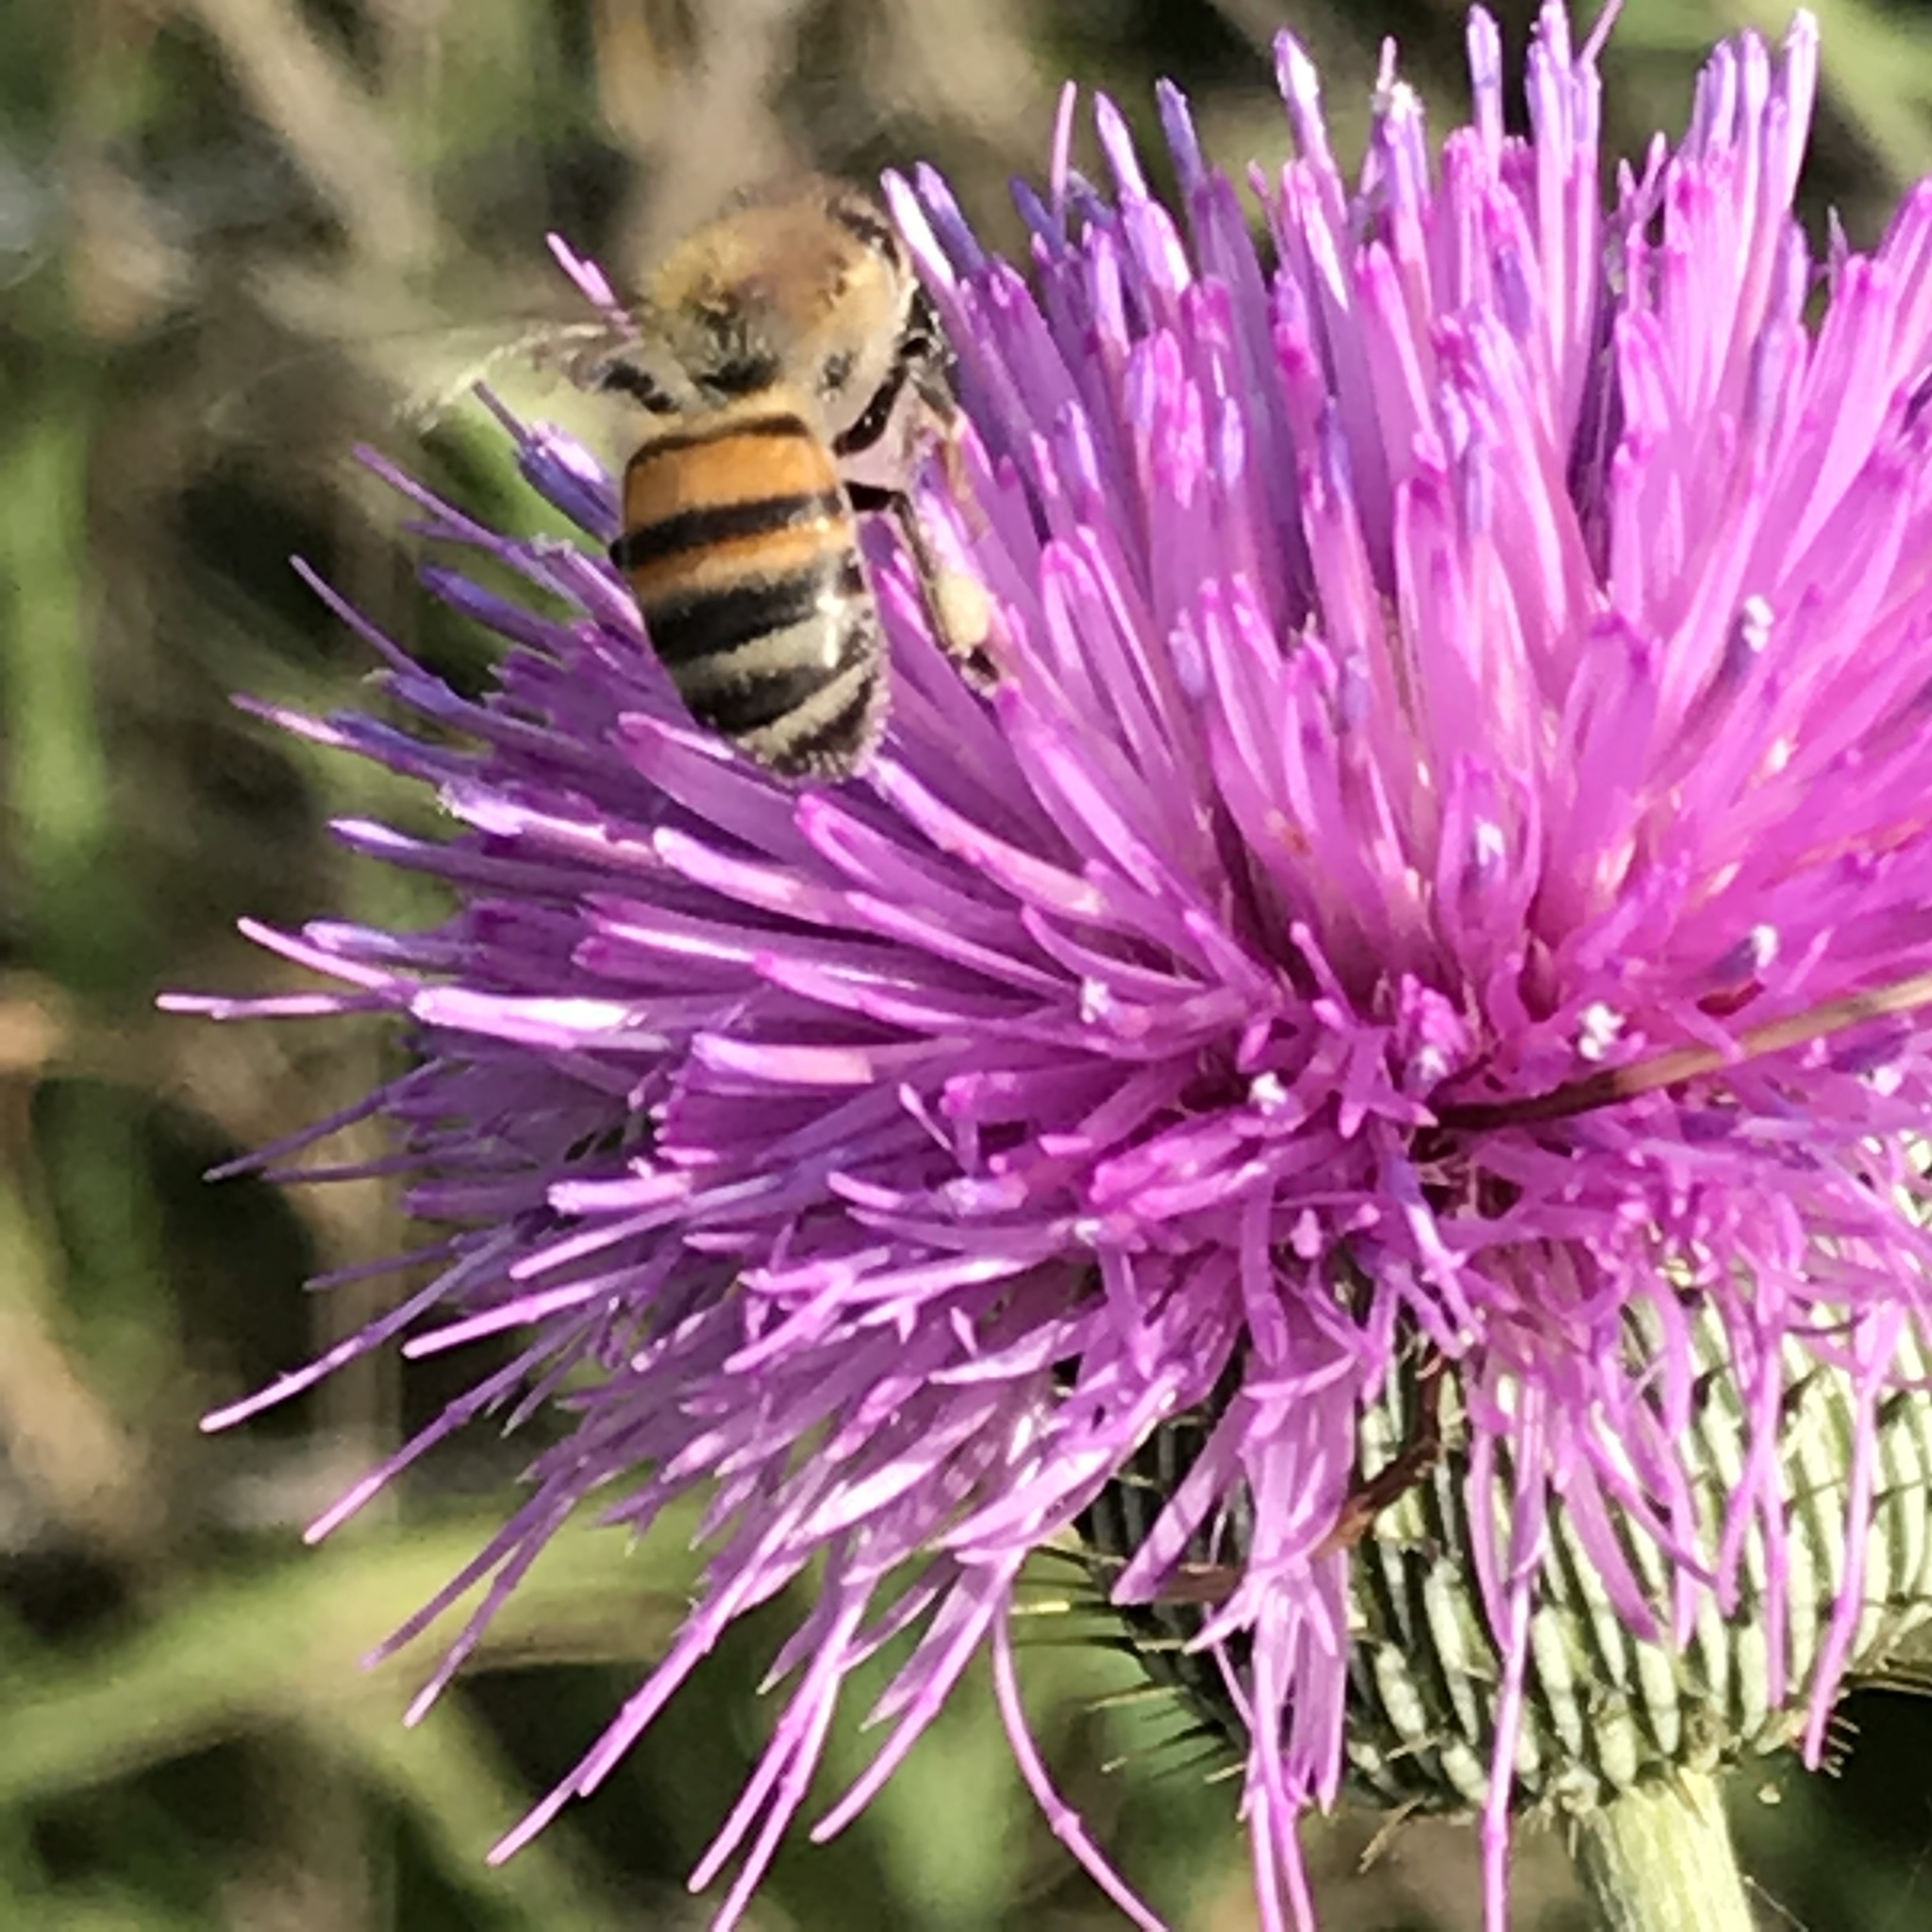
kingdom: Animalia
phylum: Arthropoda
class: Insecta
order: Hymenoptera
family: Apidae
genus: Apis
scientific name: Apis mellifera
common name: Honey bee
